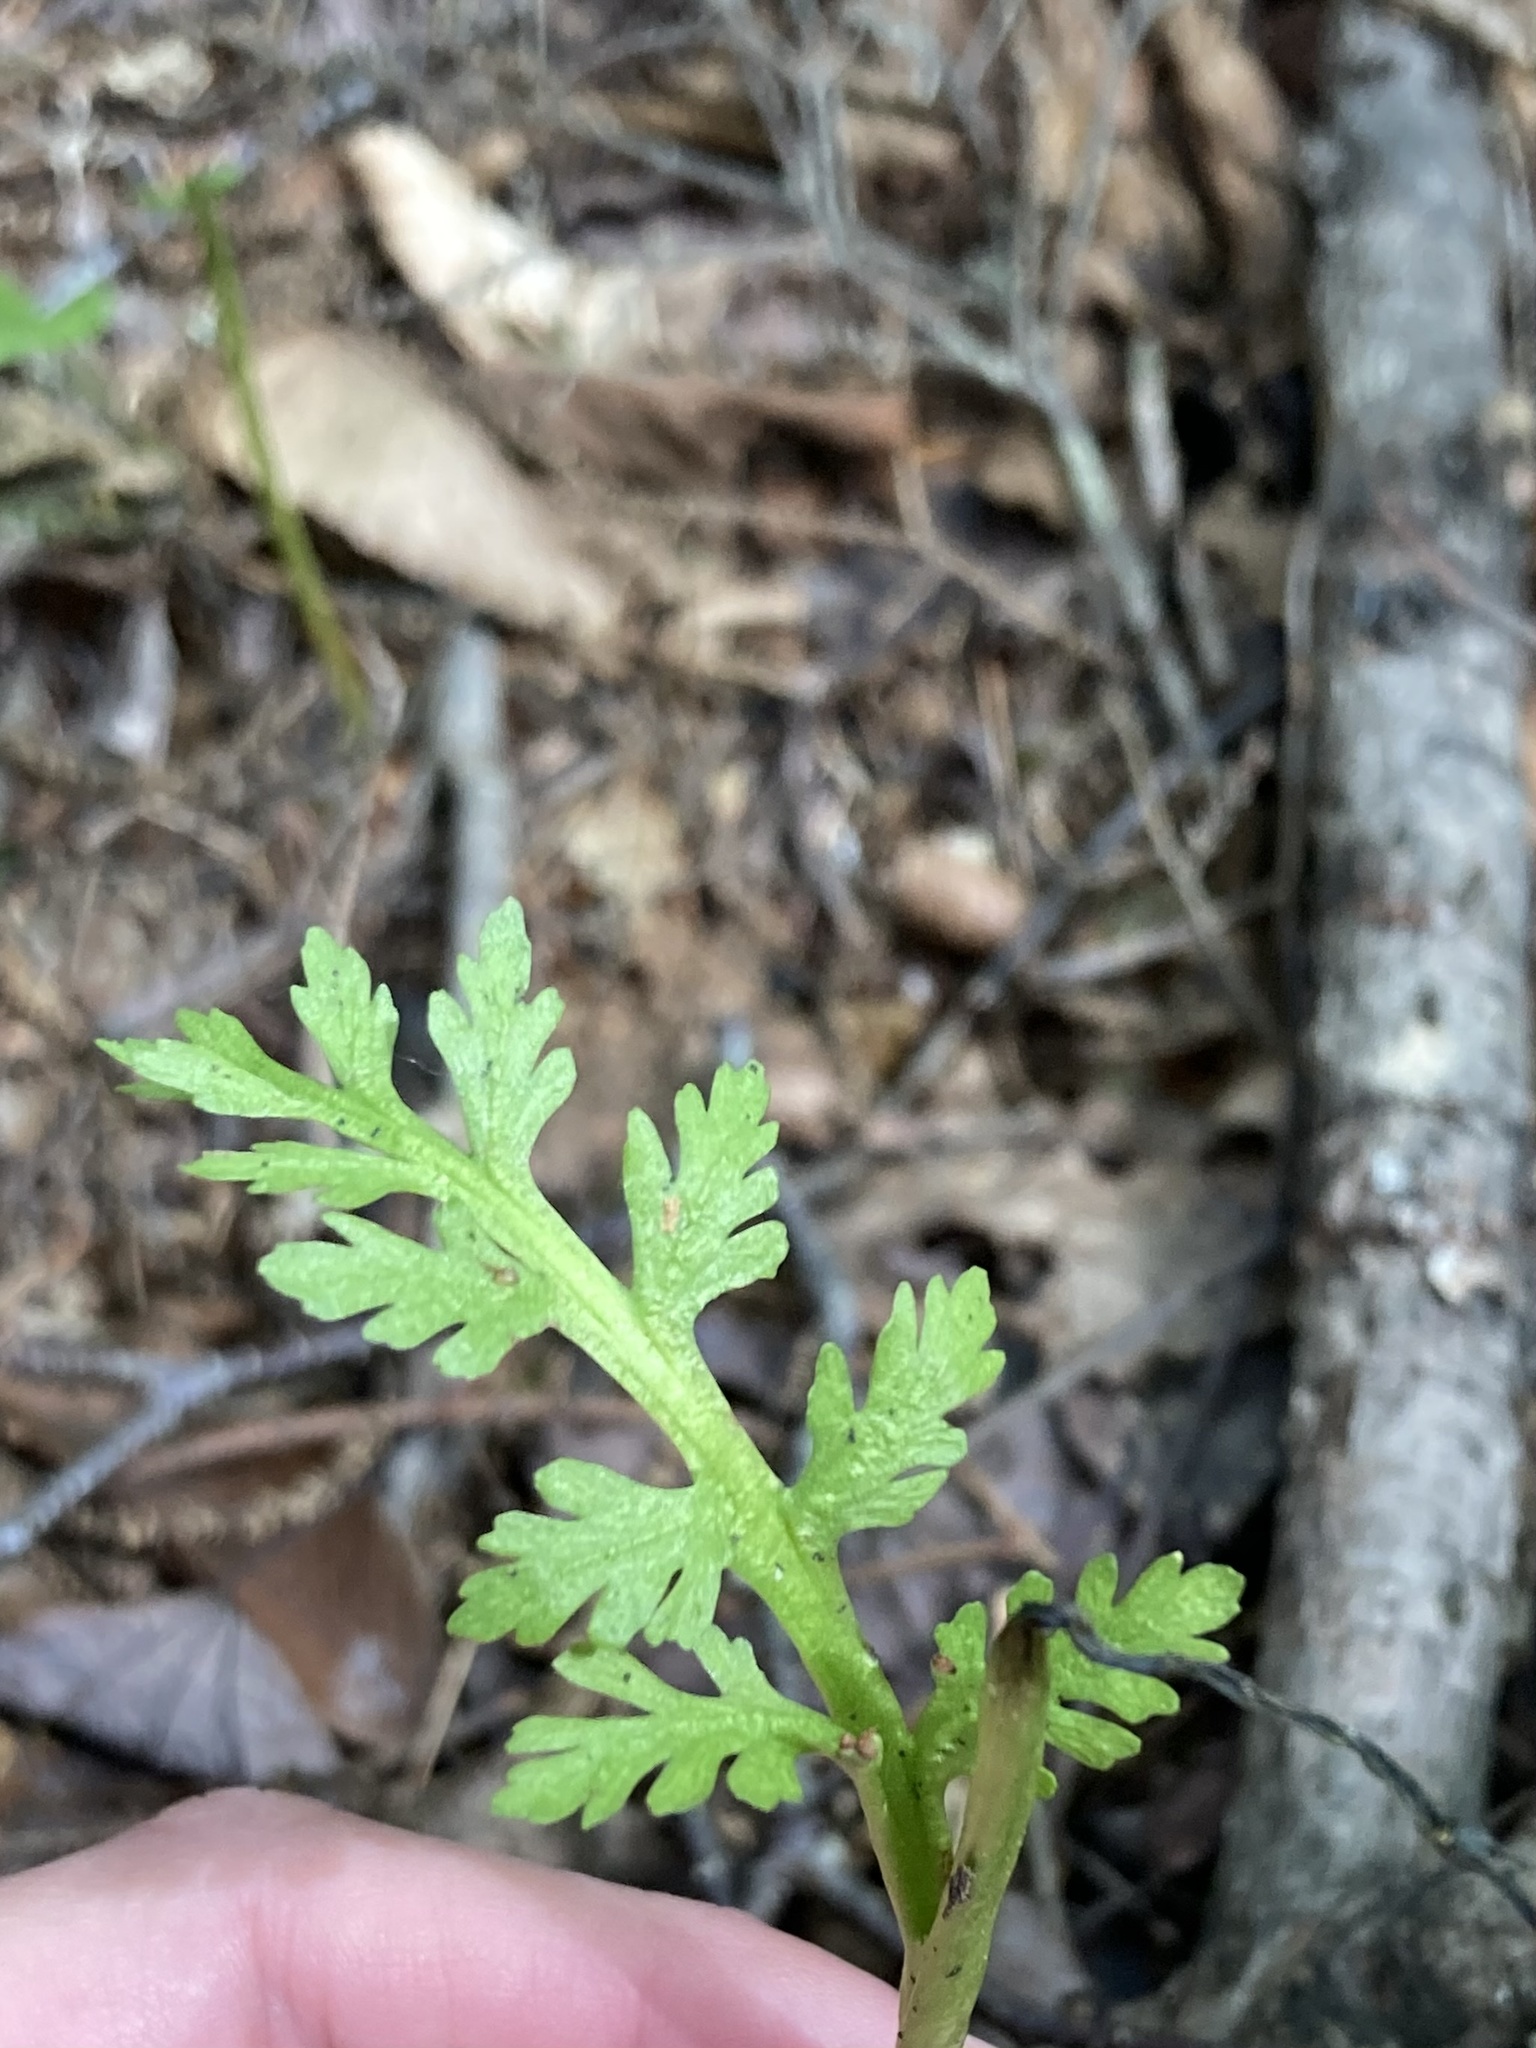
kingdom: Plantae
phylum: Tracheophyta
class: Polypodiopsida
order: Ophioglossales
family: Ophioglossaceae
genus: Botrychium
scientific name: Botrychium matricariifolium
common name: Branched moonwort
